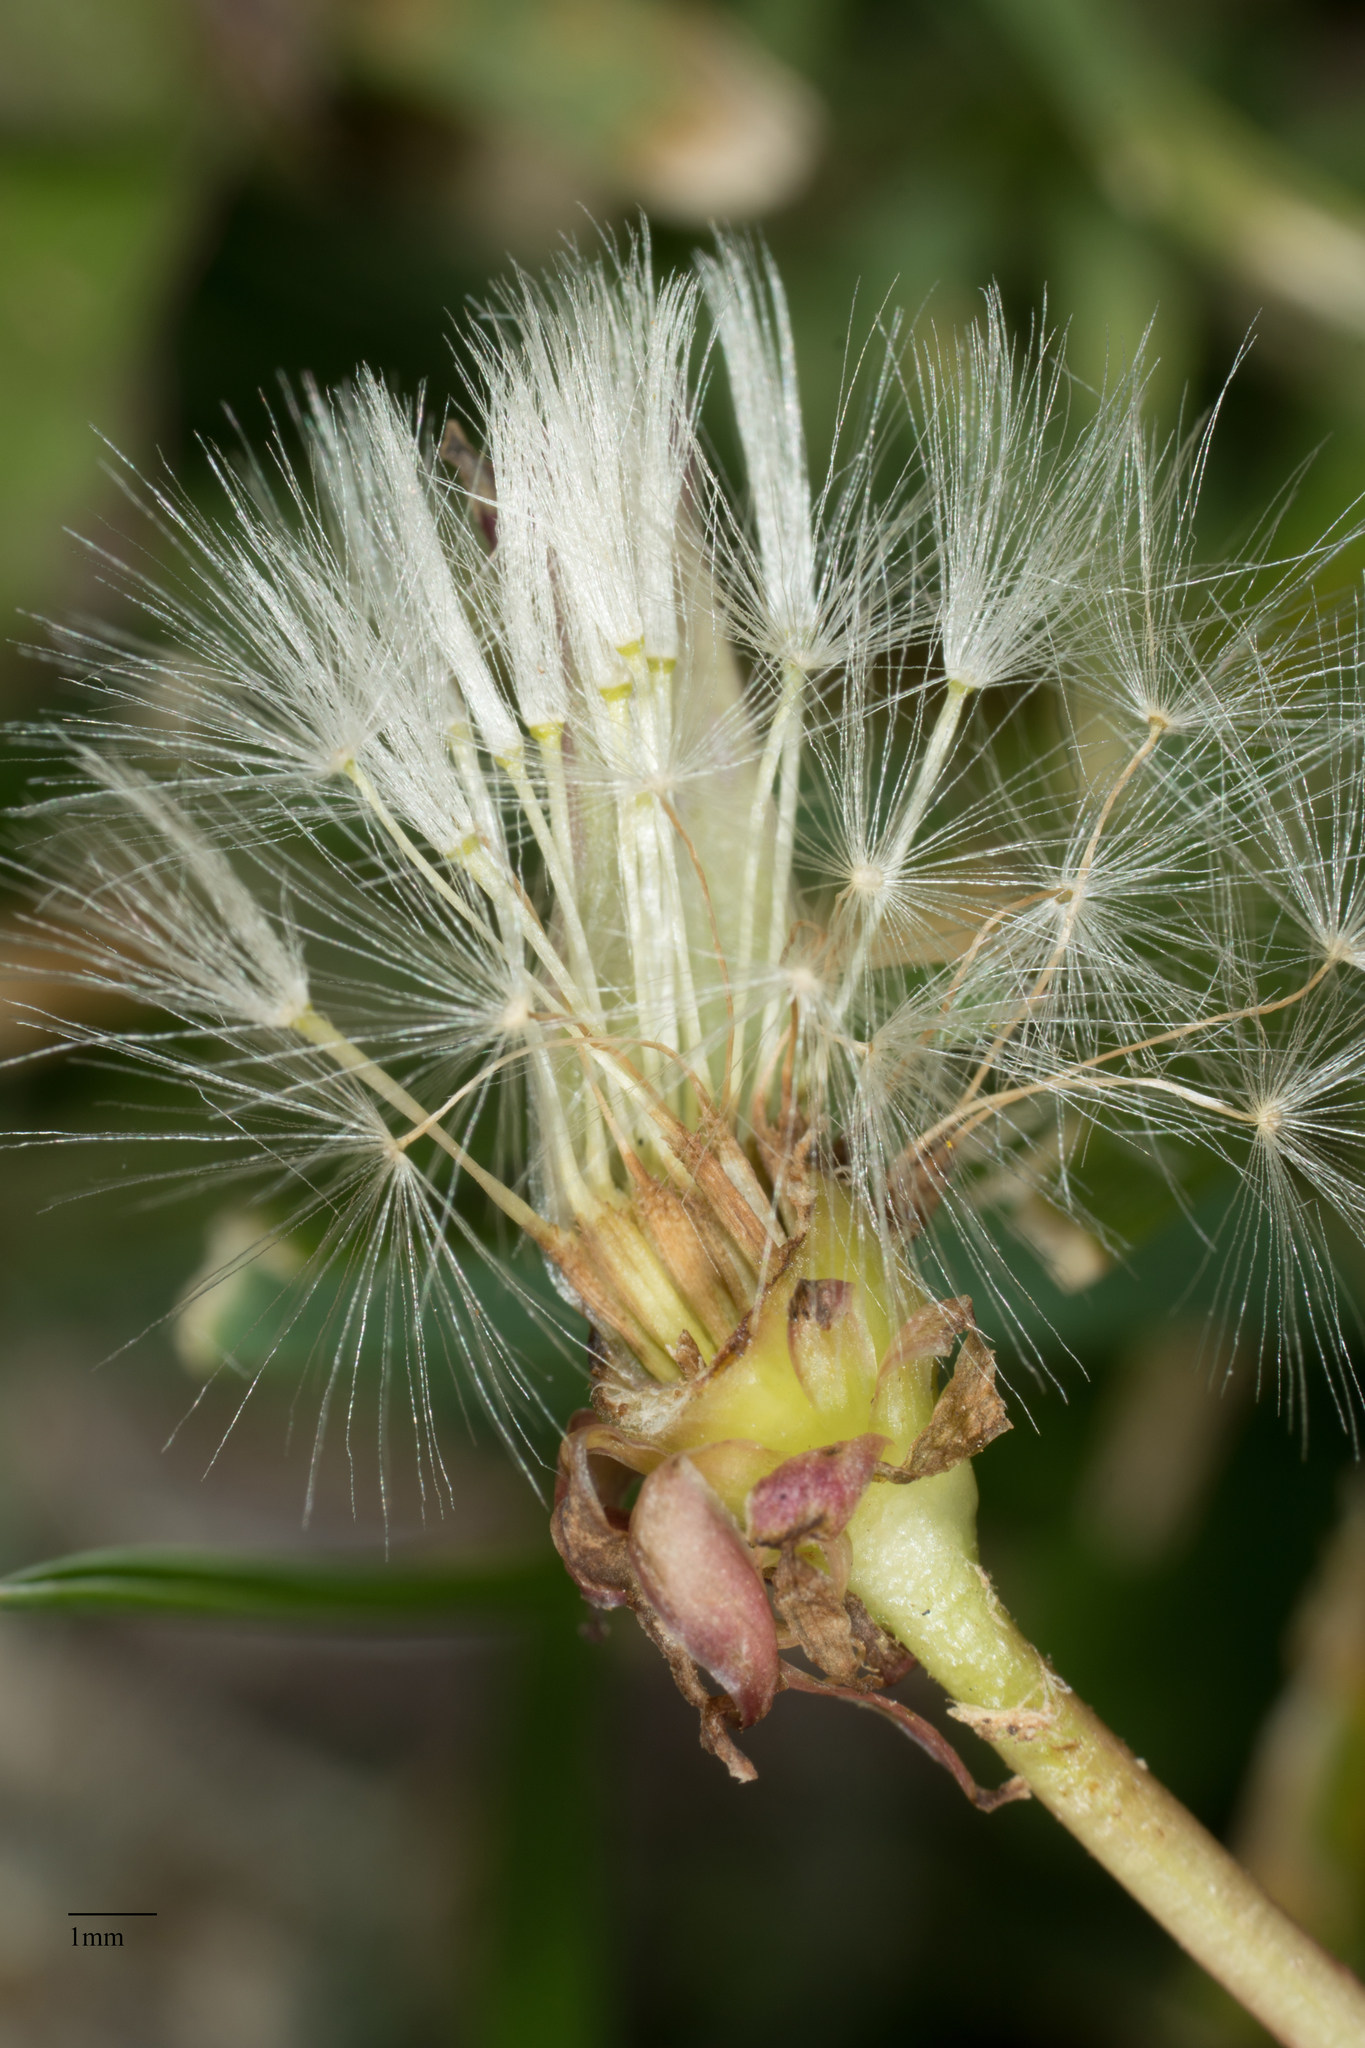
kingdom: Plantae
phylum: Tracheophyta
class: Magnoliopsida
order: Asterales
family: Asteraceae
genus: Taraxacum
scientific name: Taraxacum officinale
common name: Common dandelion
